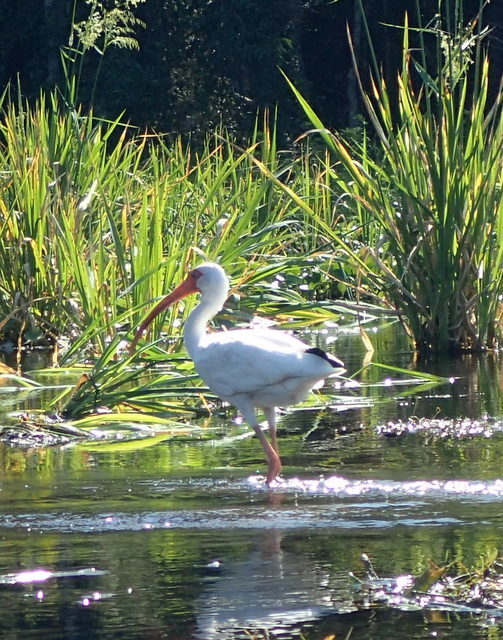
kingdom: Animalia
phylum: Chordata
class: Aves
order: Pelecaniformes
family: Threskiornithidae
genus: Eudocimus
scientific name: Eudocimus albus
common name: White ibis
